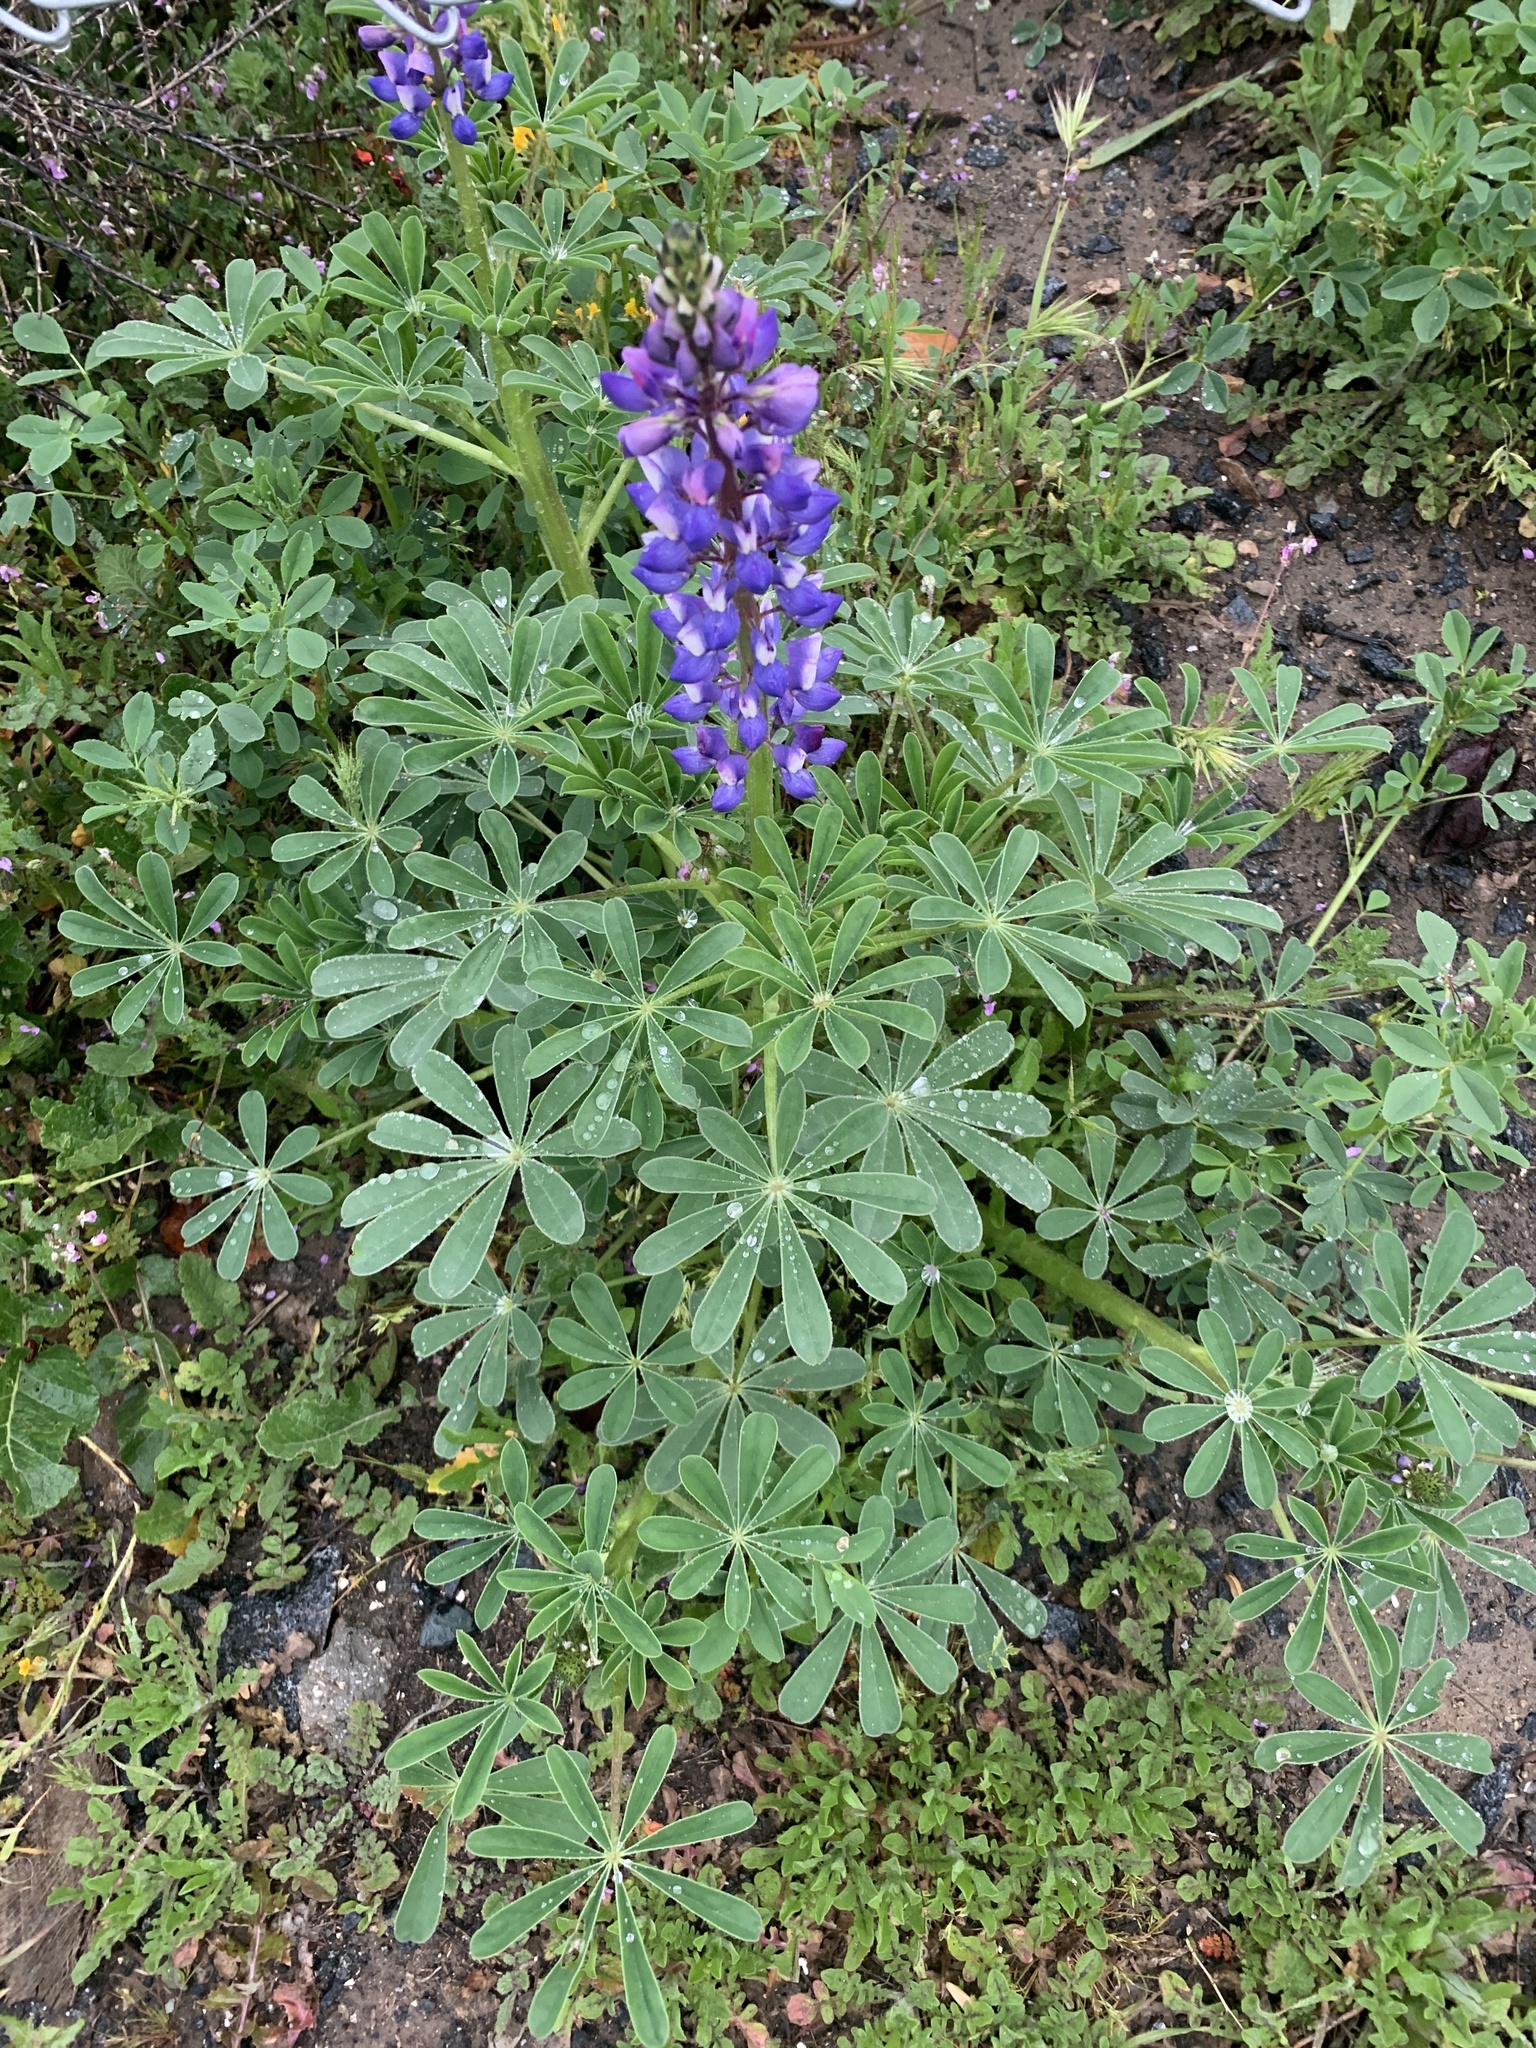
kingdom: Plantae
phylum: Tracheophyta
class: Magnoliopsida
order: Fabales
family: Fabaceae
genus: Lupinus
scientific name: Lupinus succulentus
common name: Arroyo lupine
